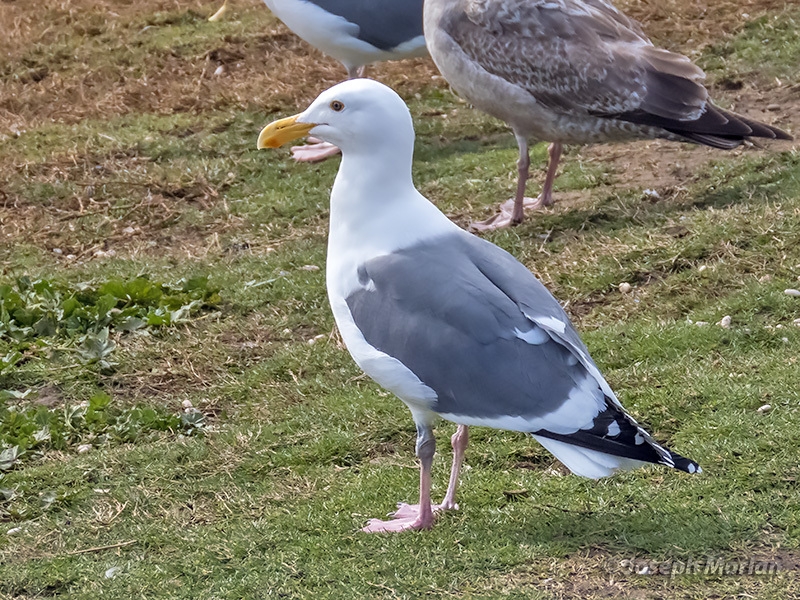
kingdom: Animalia
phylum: Chordata
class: Aves
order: Charadriiformes
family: Laridae
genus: Larus
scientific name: Larus occidentalis
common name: Western gull
